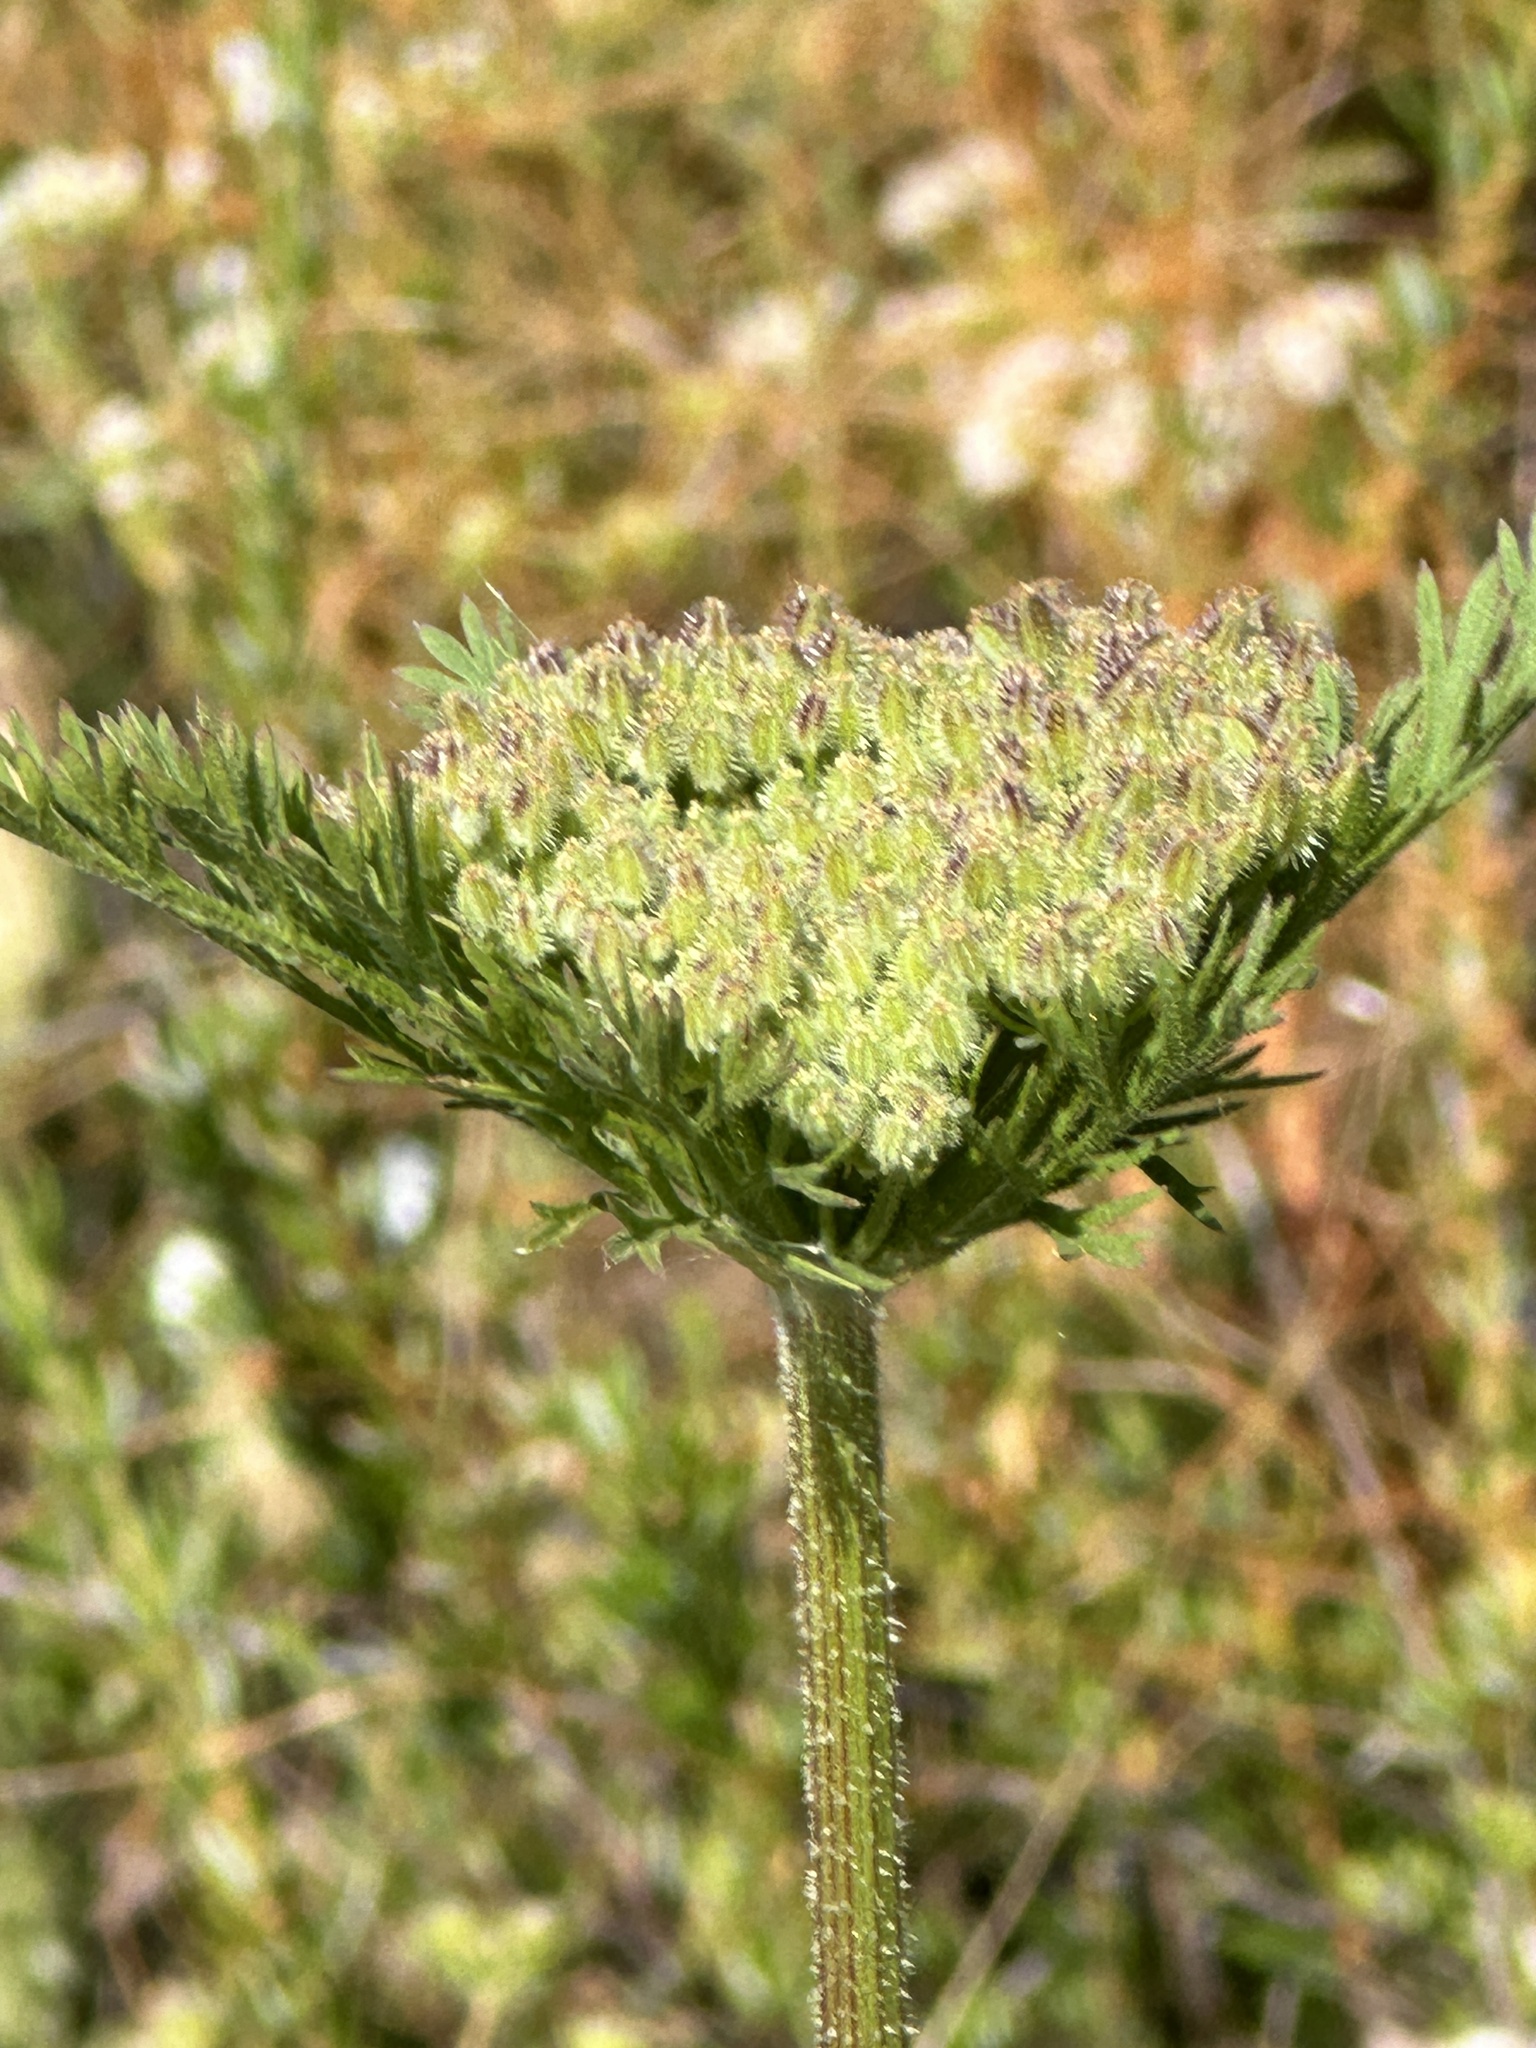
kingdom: Plantae
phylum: Tracheophyta
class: Magnoliopsida
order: Apiales
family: Apiaceae
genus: Daucus
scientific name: Daucus pusillus
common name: Southwest wild carrot
